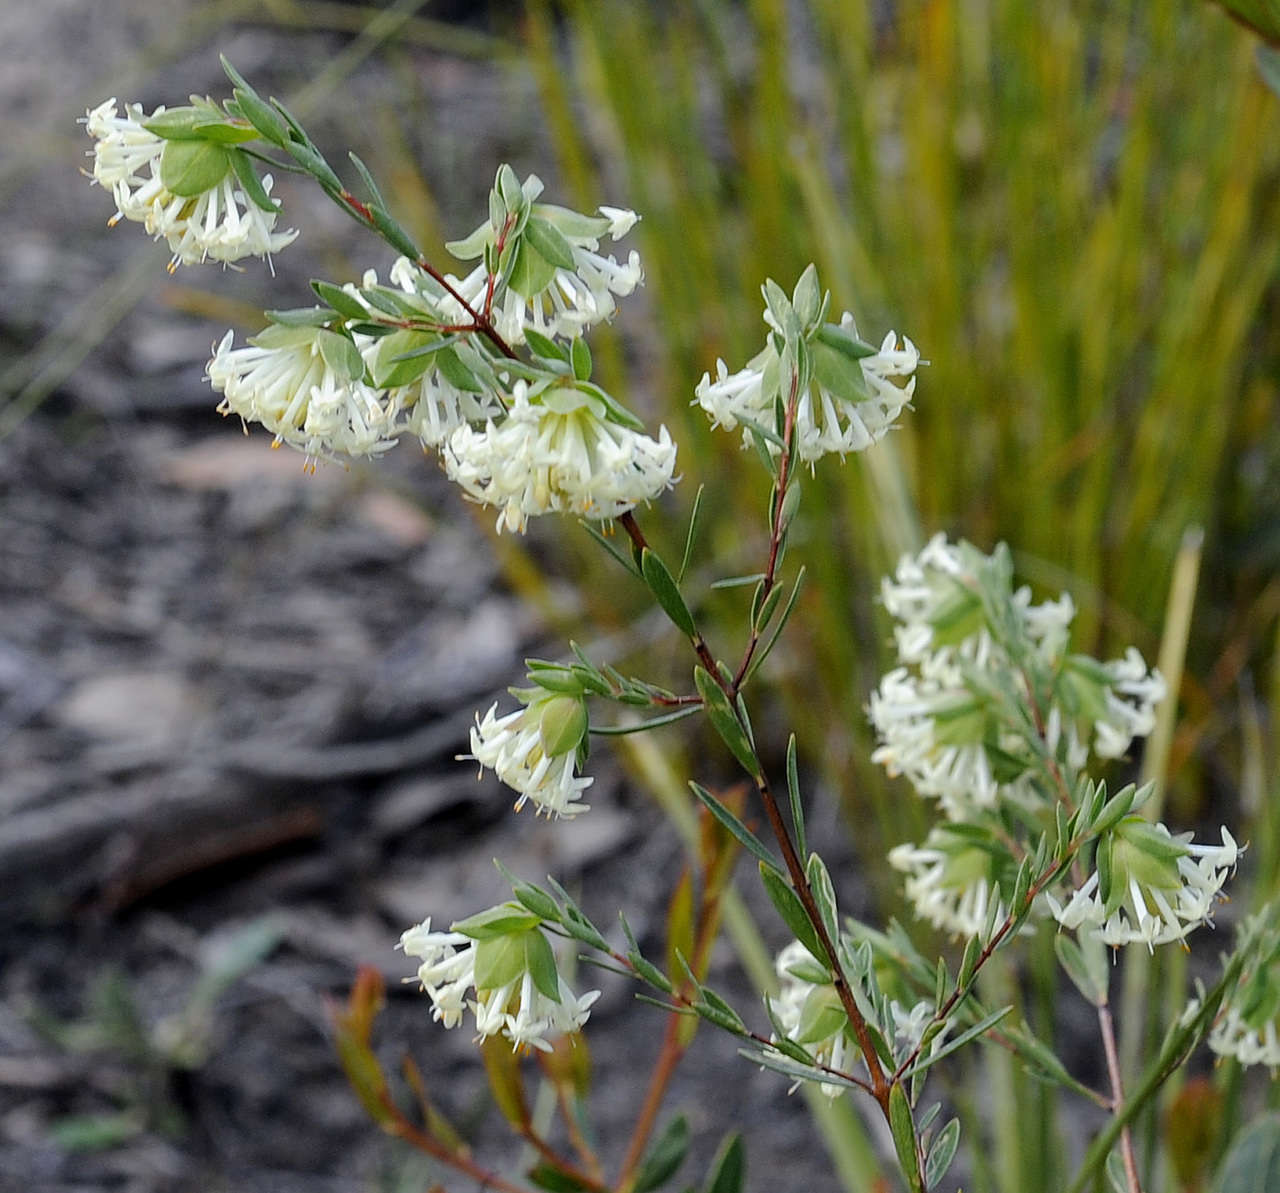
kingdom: Plantae
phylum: Tracheophyta
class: Magnoliopsida
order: Malvales
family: Thymelaeaceae
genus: Pimelea
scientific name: Pimelea linifolia
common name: Queen-of-the-bush
